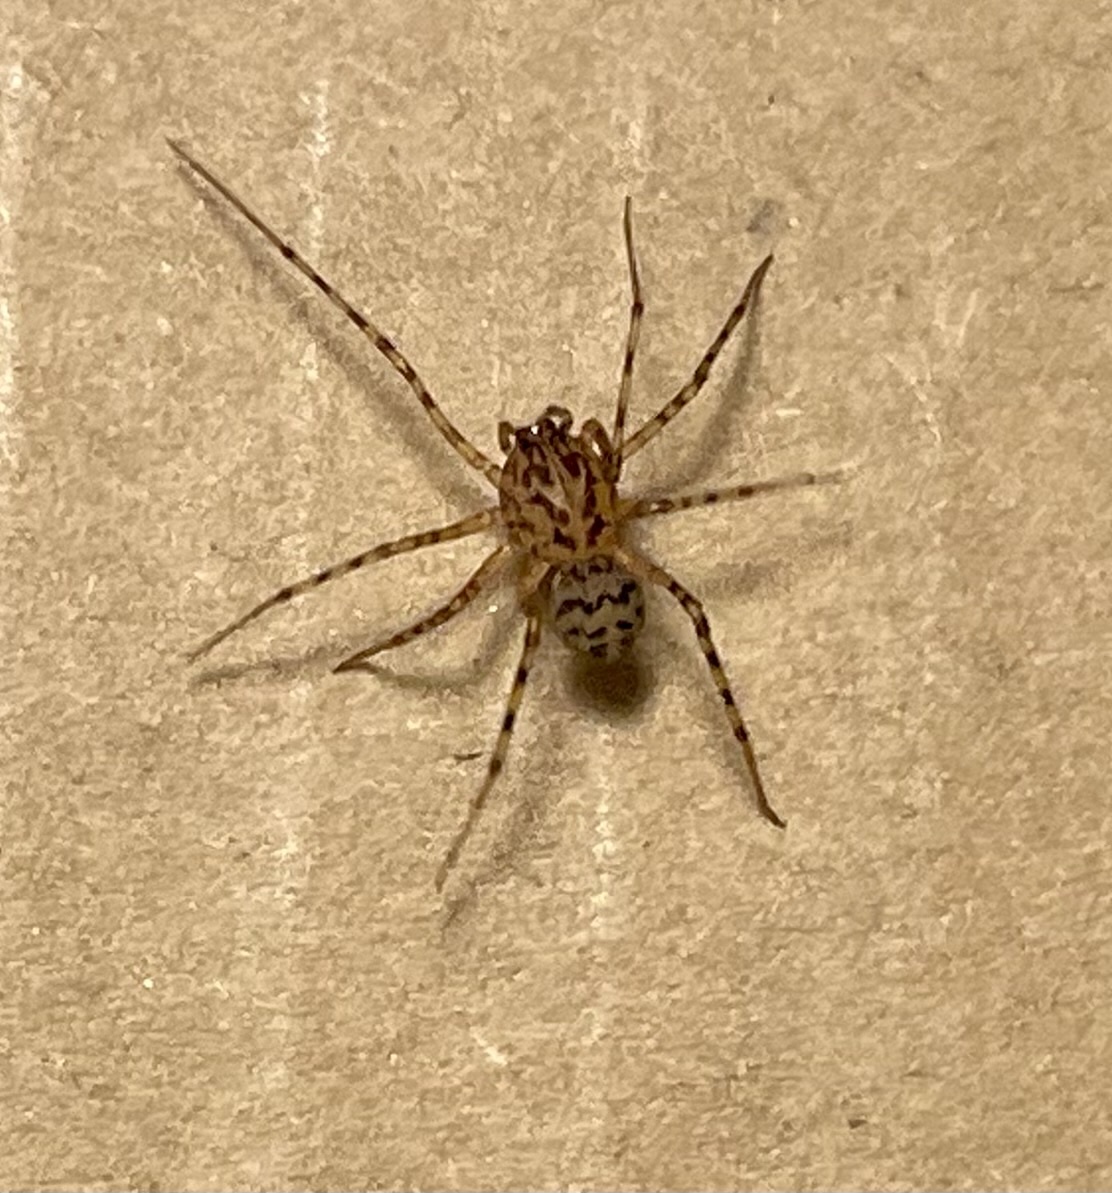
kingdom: Animalia
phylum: Arthropoda
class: Arachnida
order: Araneae
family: Scytodidae
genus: Scytodes
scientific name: Scytodes thoracica
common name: Spitting spider
